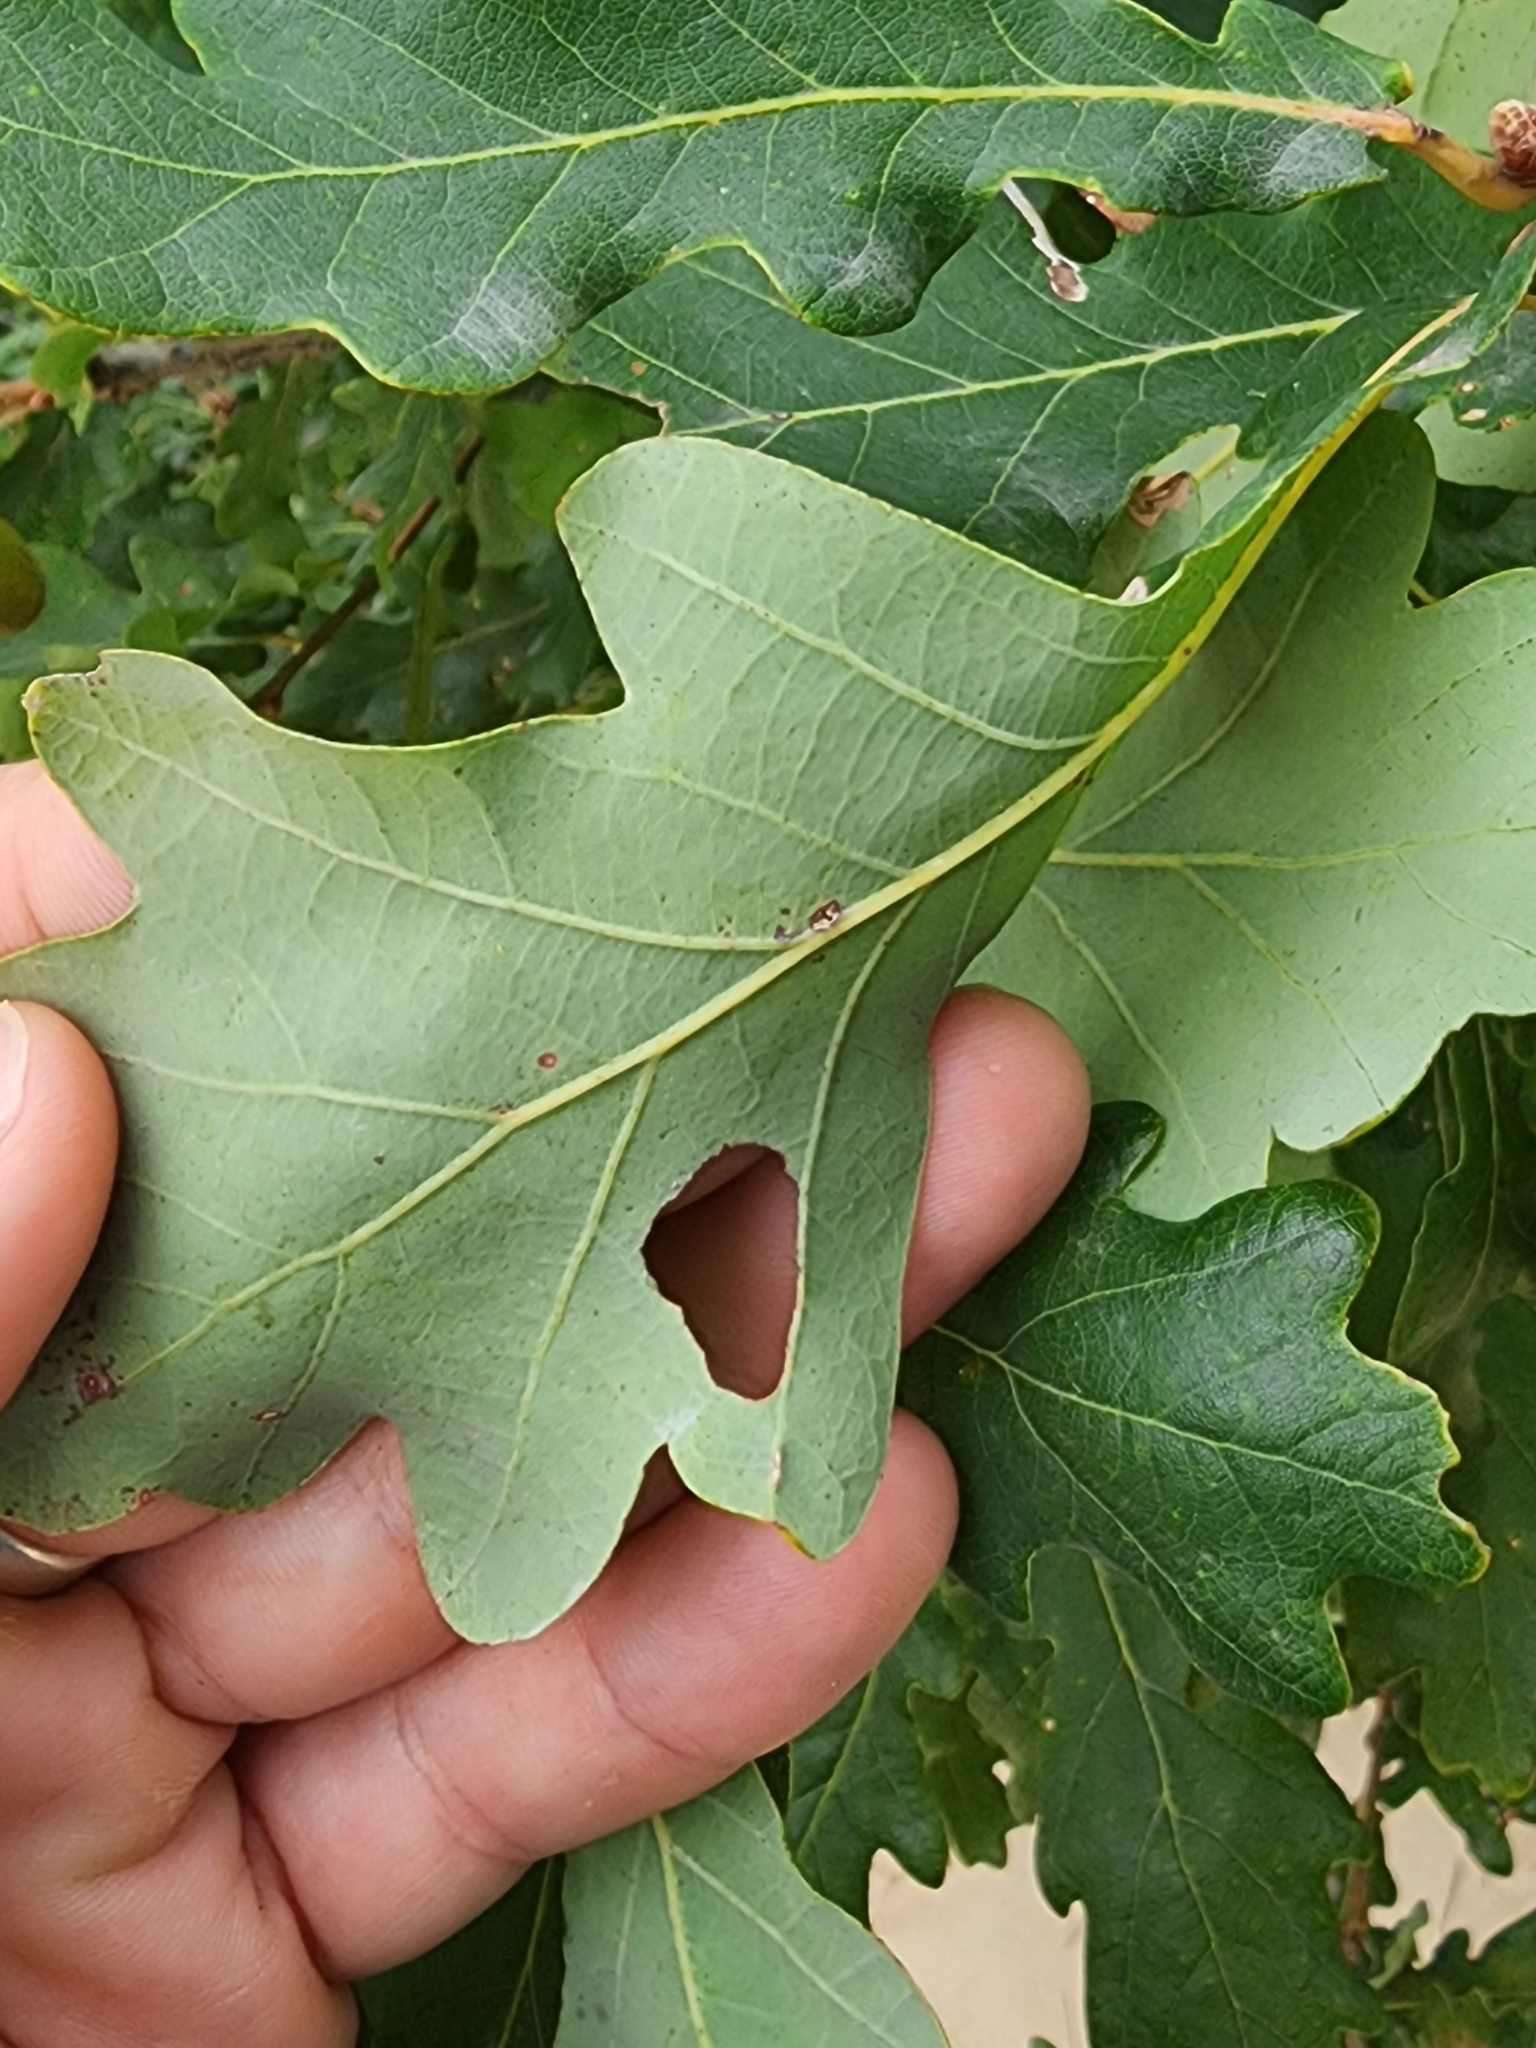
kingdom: Plantae
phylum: Tracheophyta
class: Magnoliopsida
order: Fagales
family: Fagaceae
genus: Quercus
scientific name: Quercus robur
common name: Pedunculate oak
